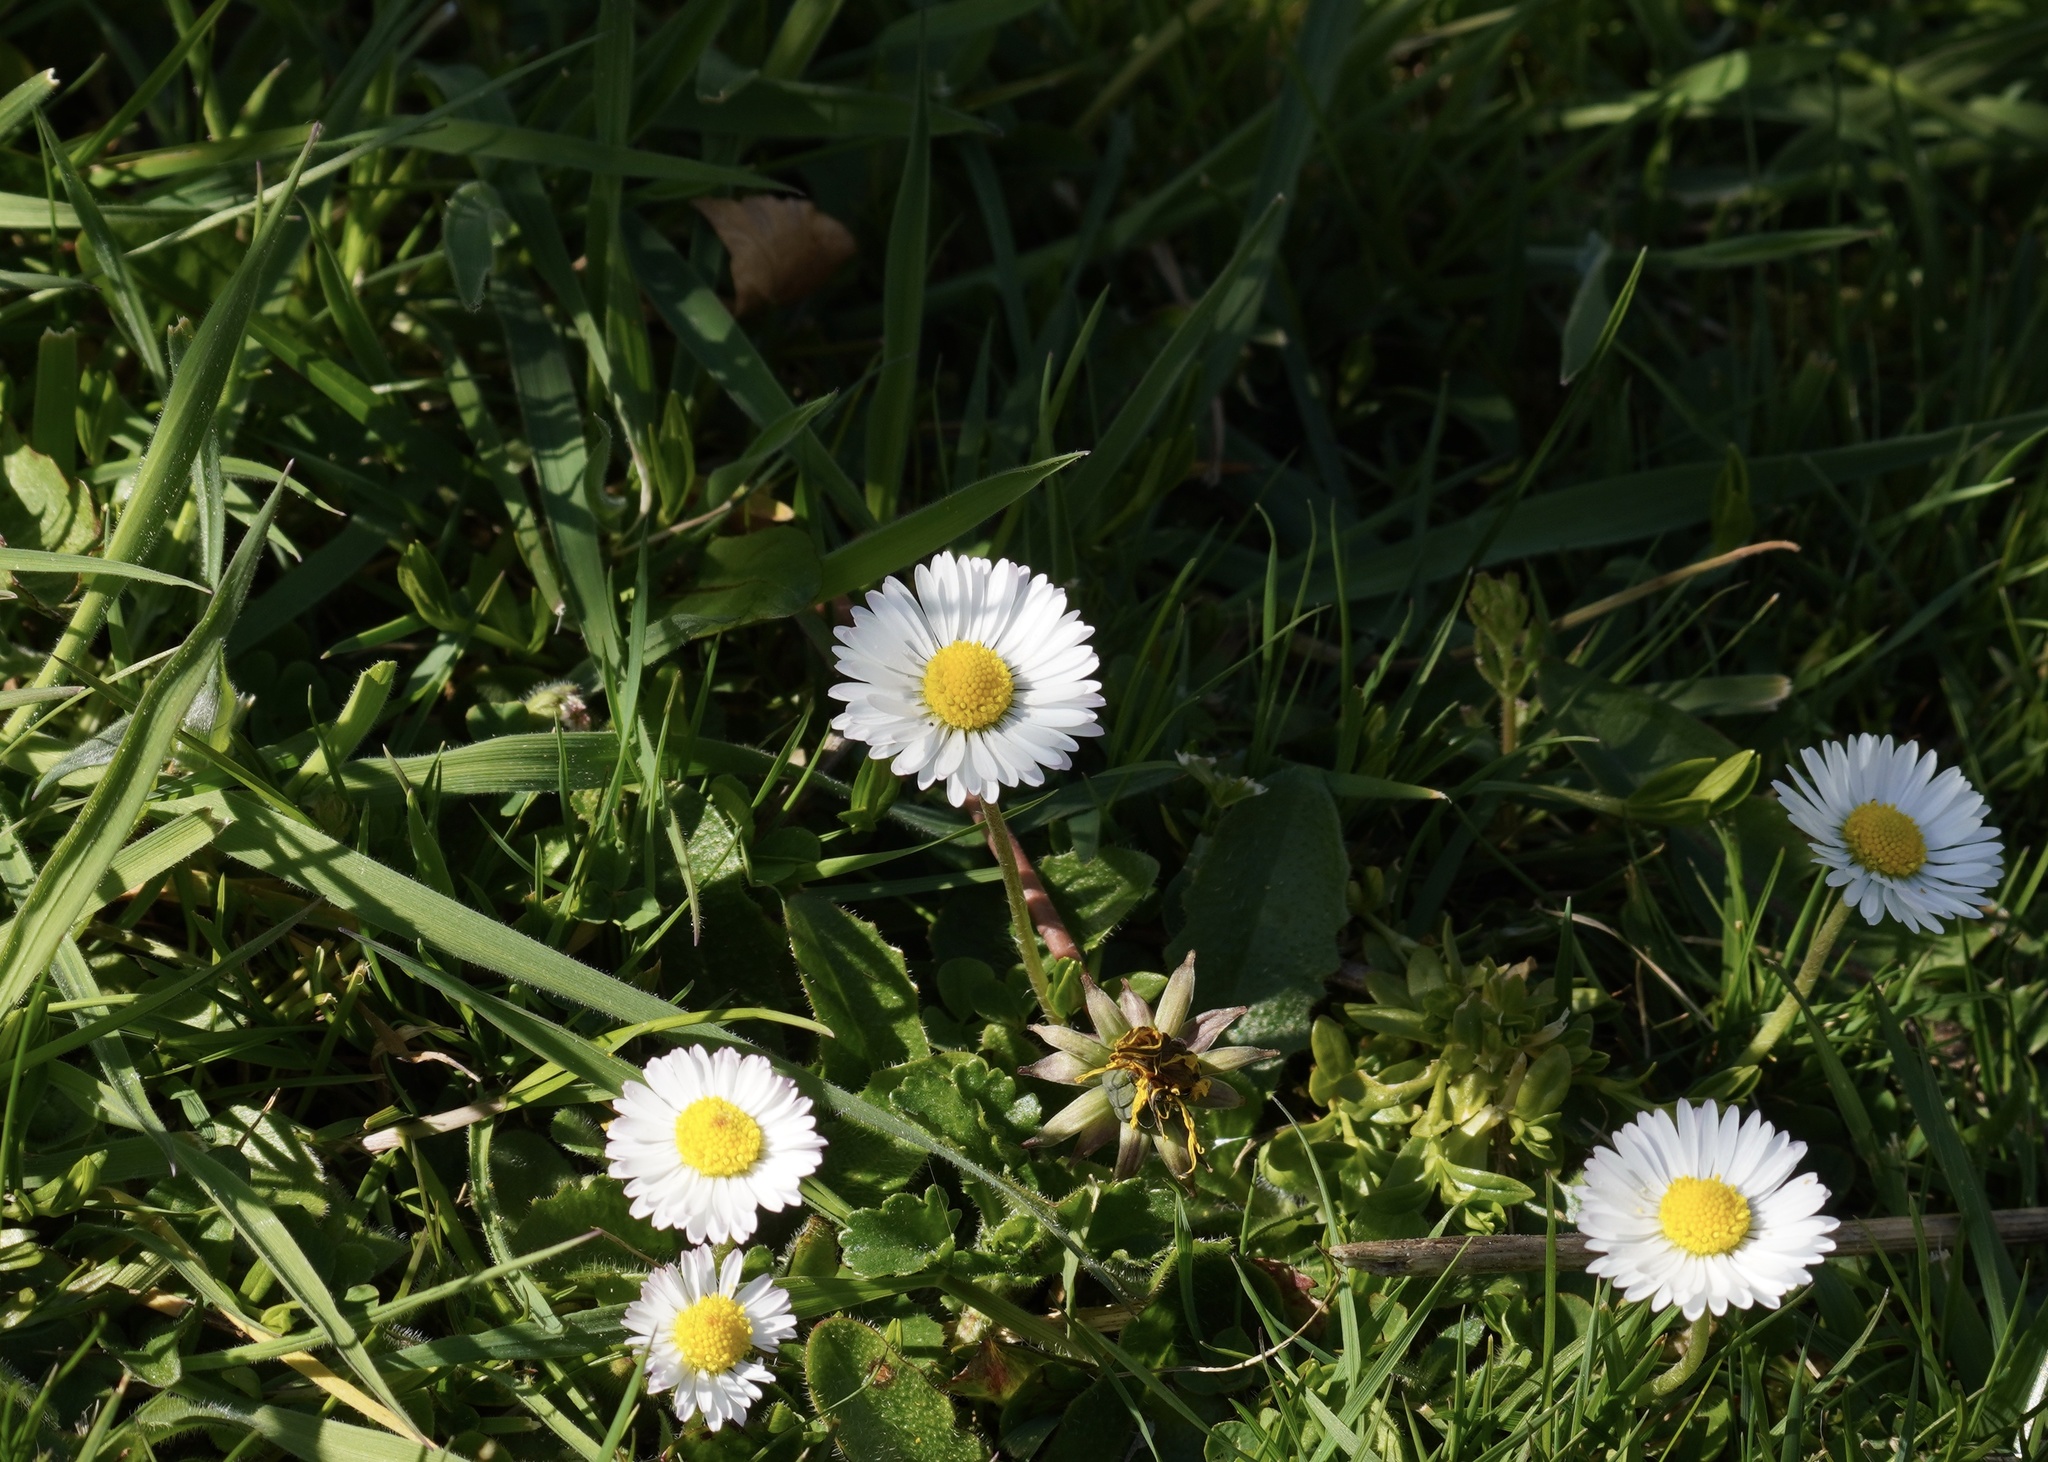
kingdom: Plantae
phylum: Tracheophyta
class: Magnoliopsida
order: Asterales
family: Asteraceae
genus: Bellis
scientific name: Bellis perennis
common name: Lawndaisy
